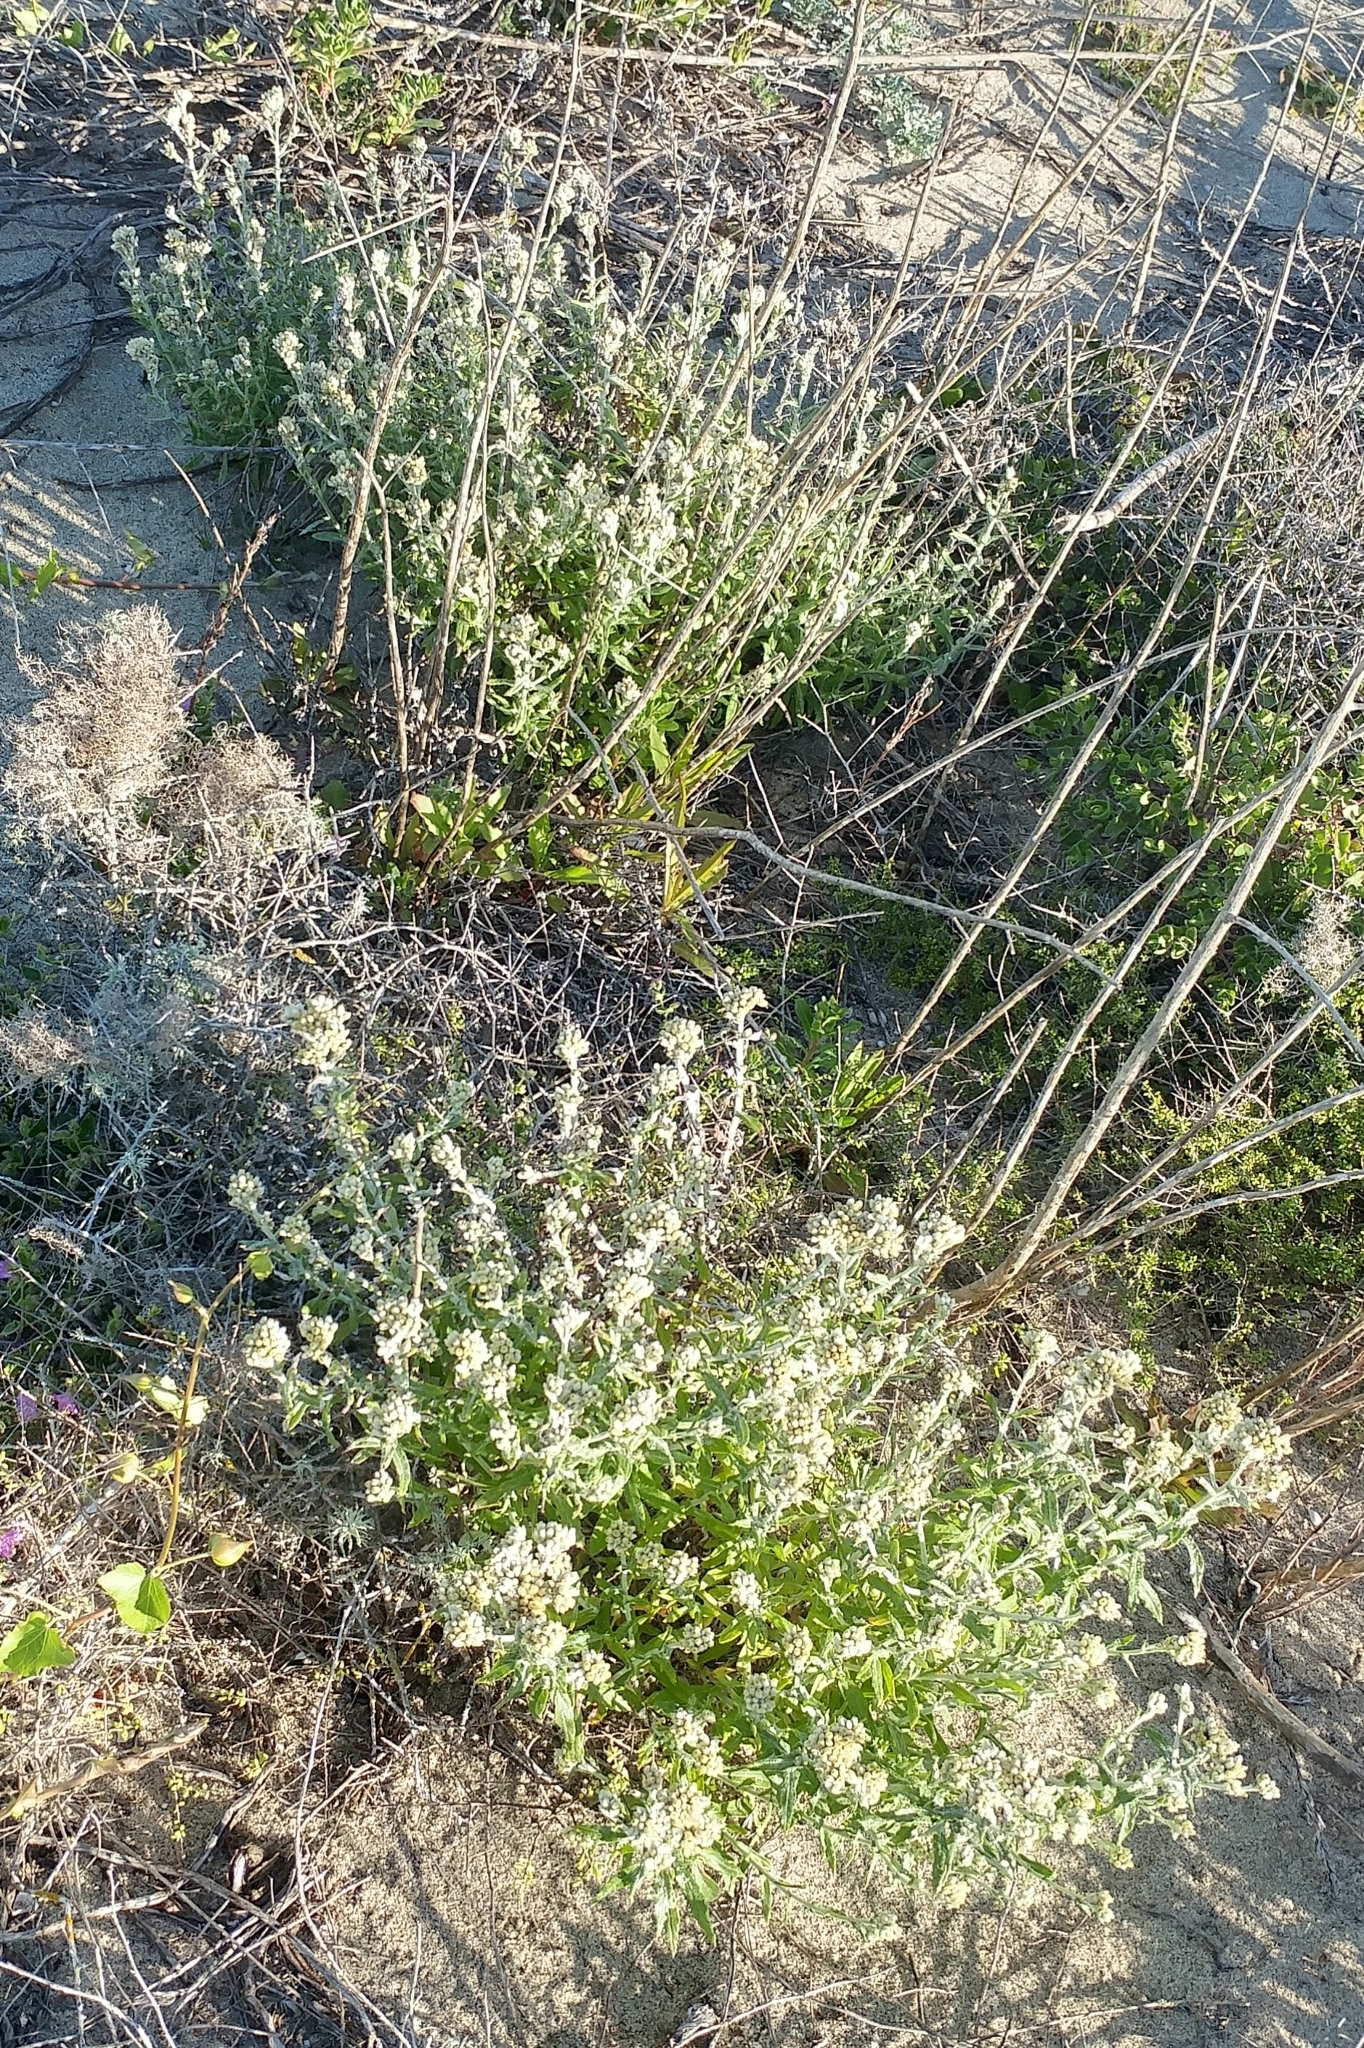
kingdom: Plantae
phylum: Tracheophyta
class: Magnoliopsida
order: Asterales
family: Asteraceae
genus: Pseudognaphalium
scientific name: Pseudognaphalium biolettii
